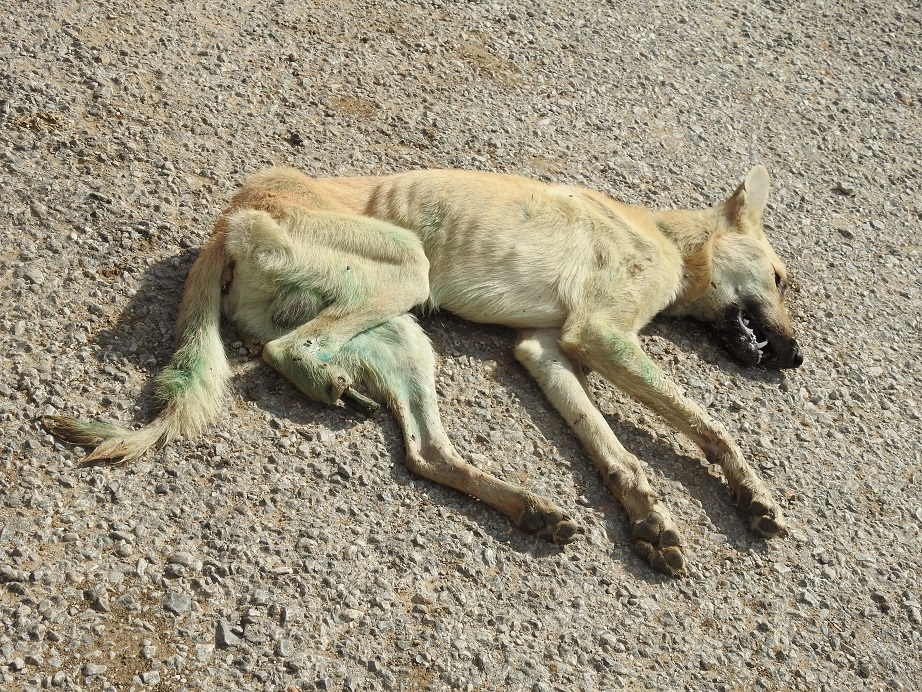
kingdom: Animalia
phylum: Chordata
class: Mammalia
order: Carnivora
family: Canidae
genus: Canis
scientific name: Canis lupus
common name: Gray wolf
